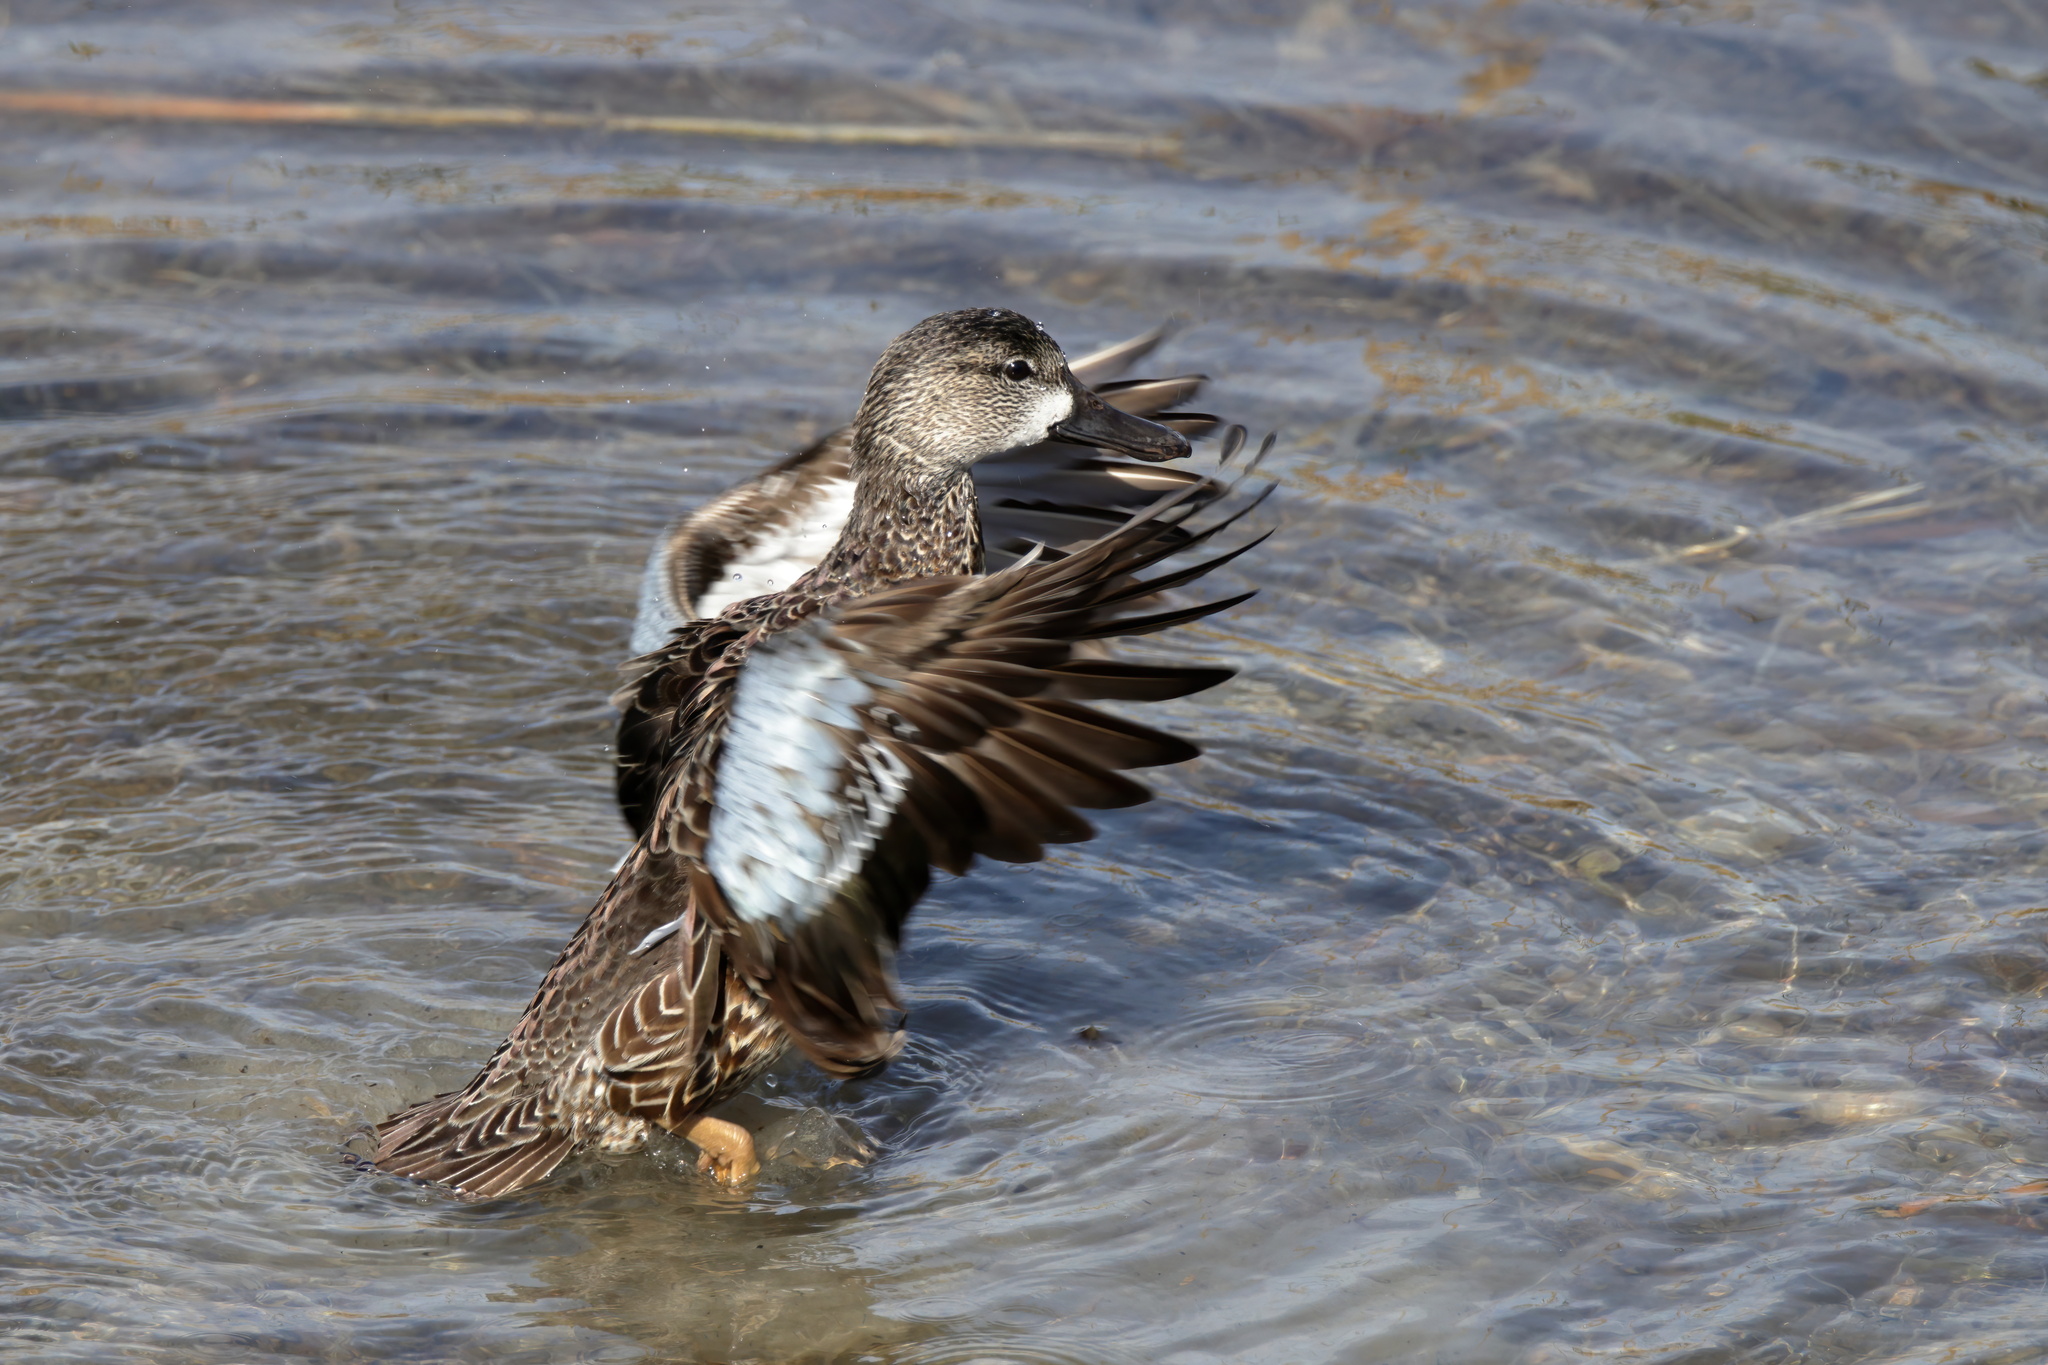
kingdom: Animalia
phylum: Chordata
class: Aves
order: Anseriformes
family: Anatidae
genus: Spatula
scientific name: Spatula discors
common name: Blue-winged teal
